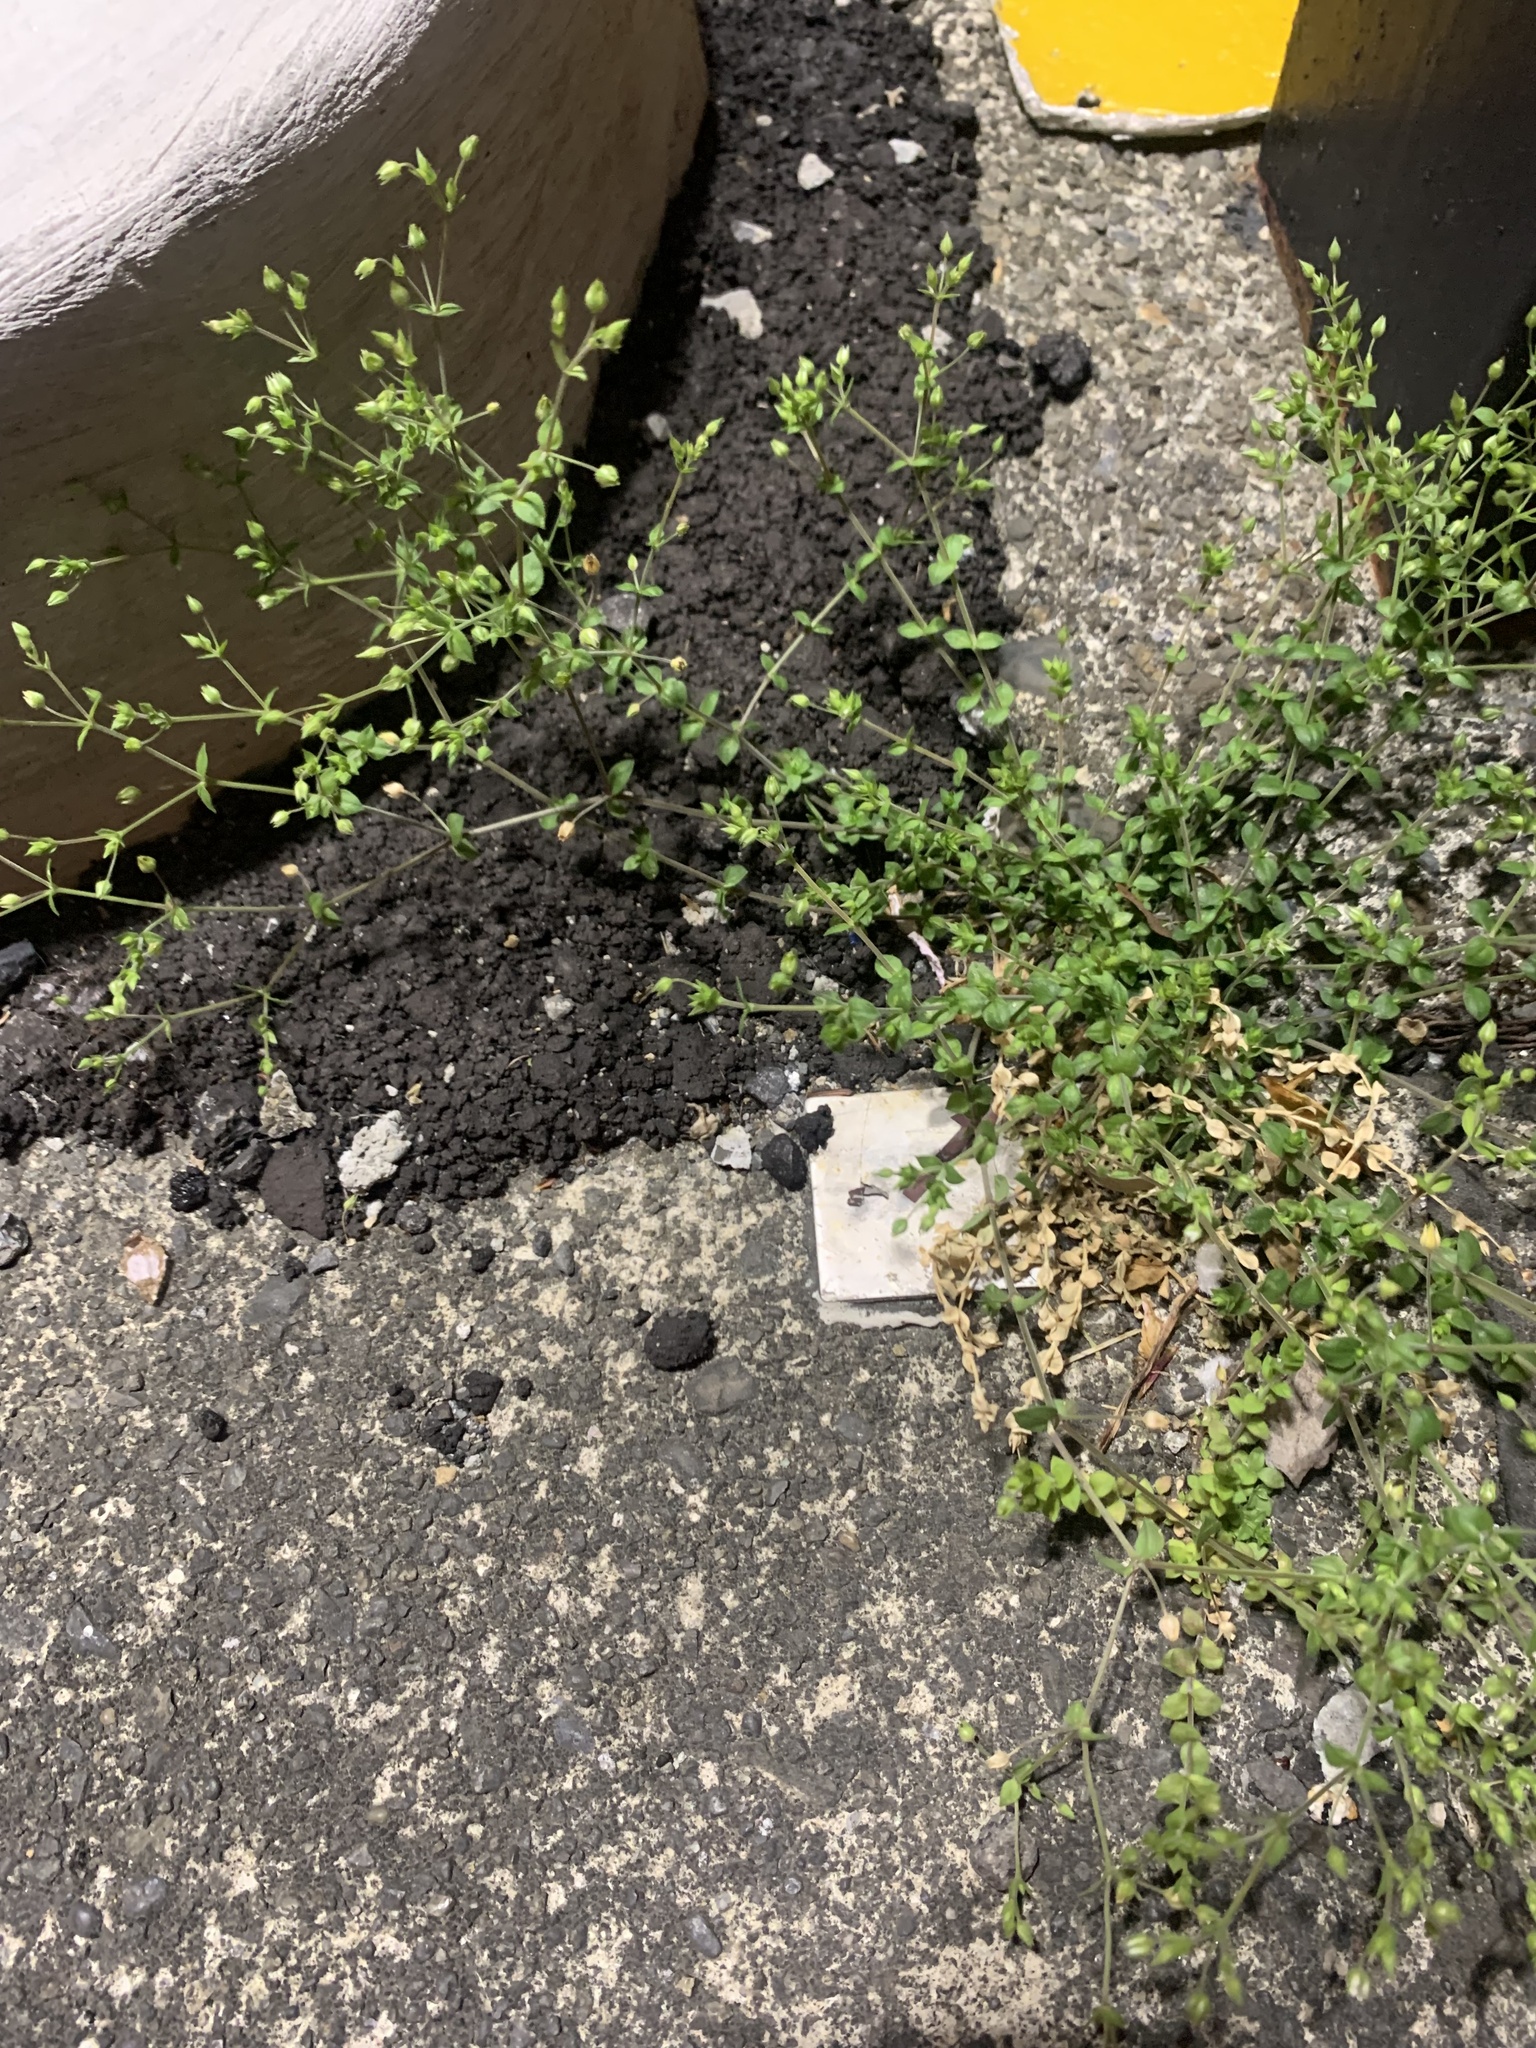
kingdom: Plantae
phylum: Tracheophyta
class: Magnoliopsida
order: Caryophyllales
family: Caryophyllaceae
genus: Arenaria
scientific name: Arenaria serpyllifolia
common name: Thyme-leaved sandwort
